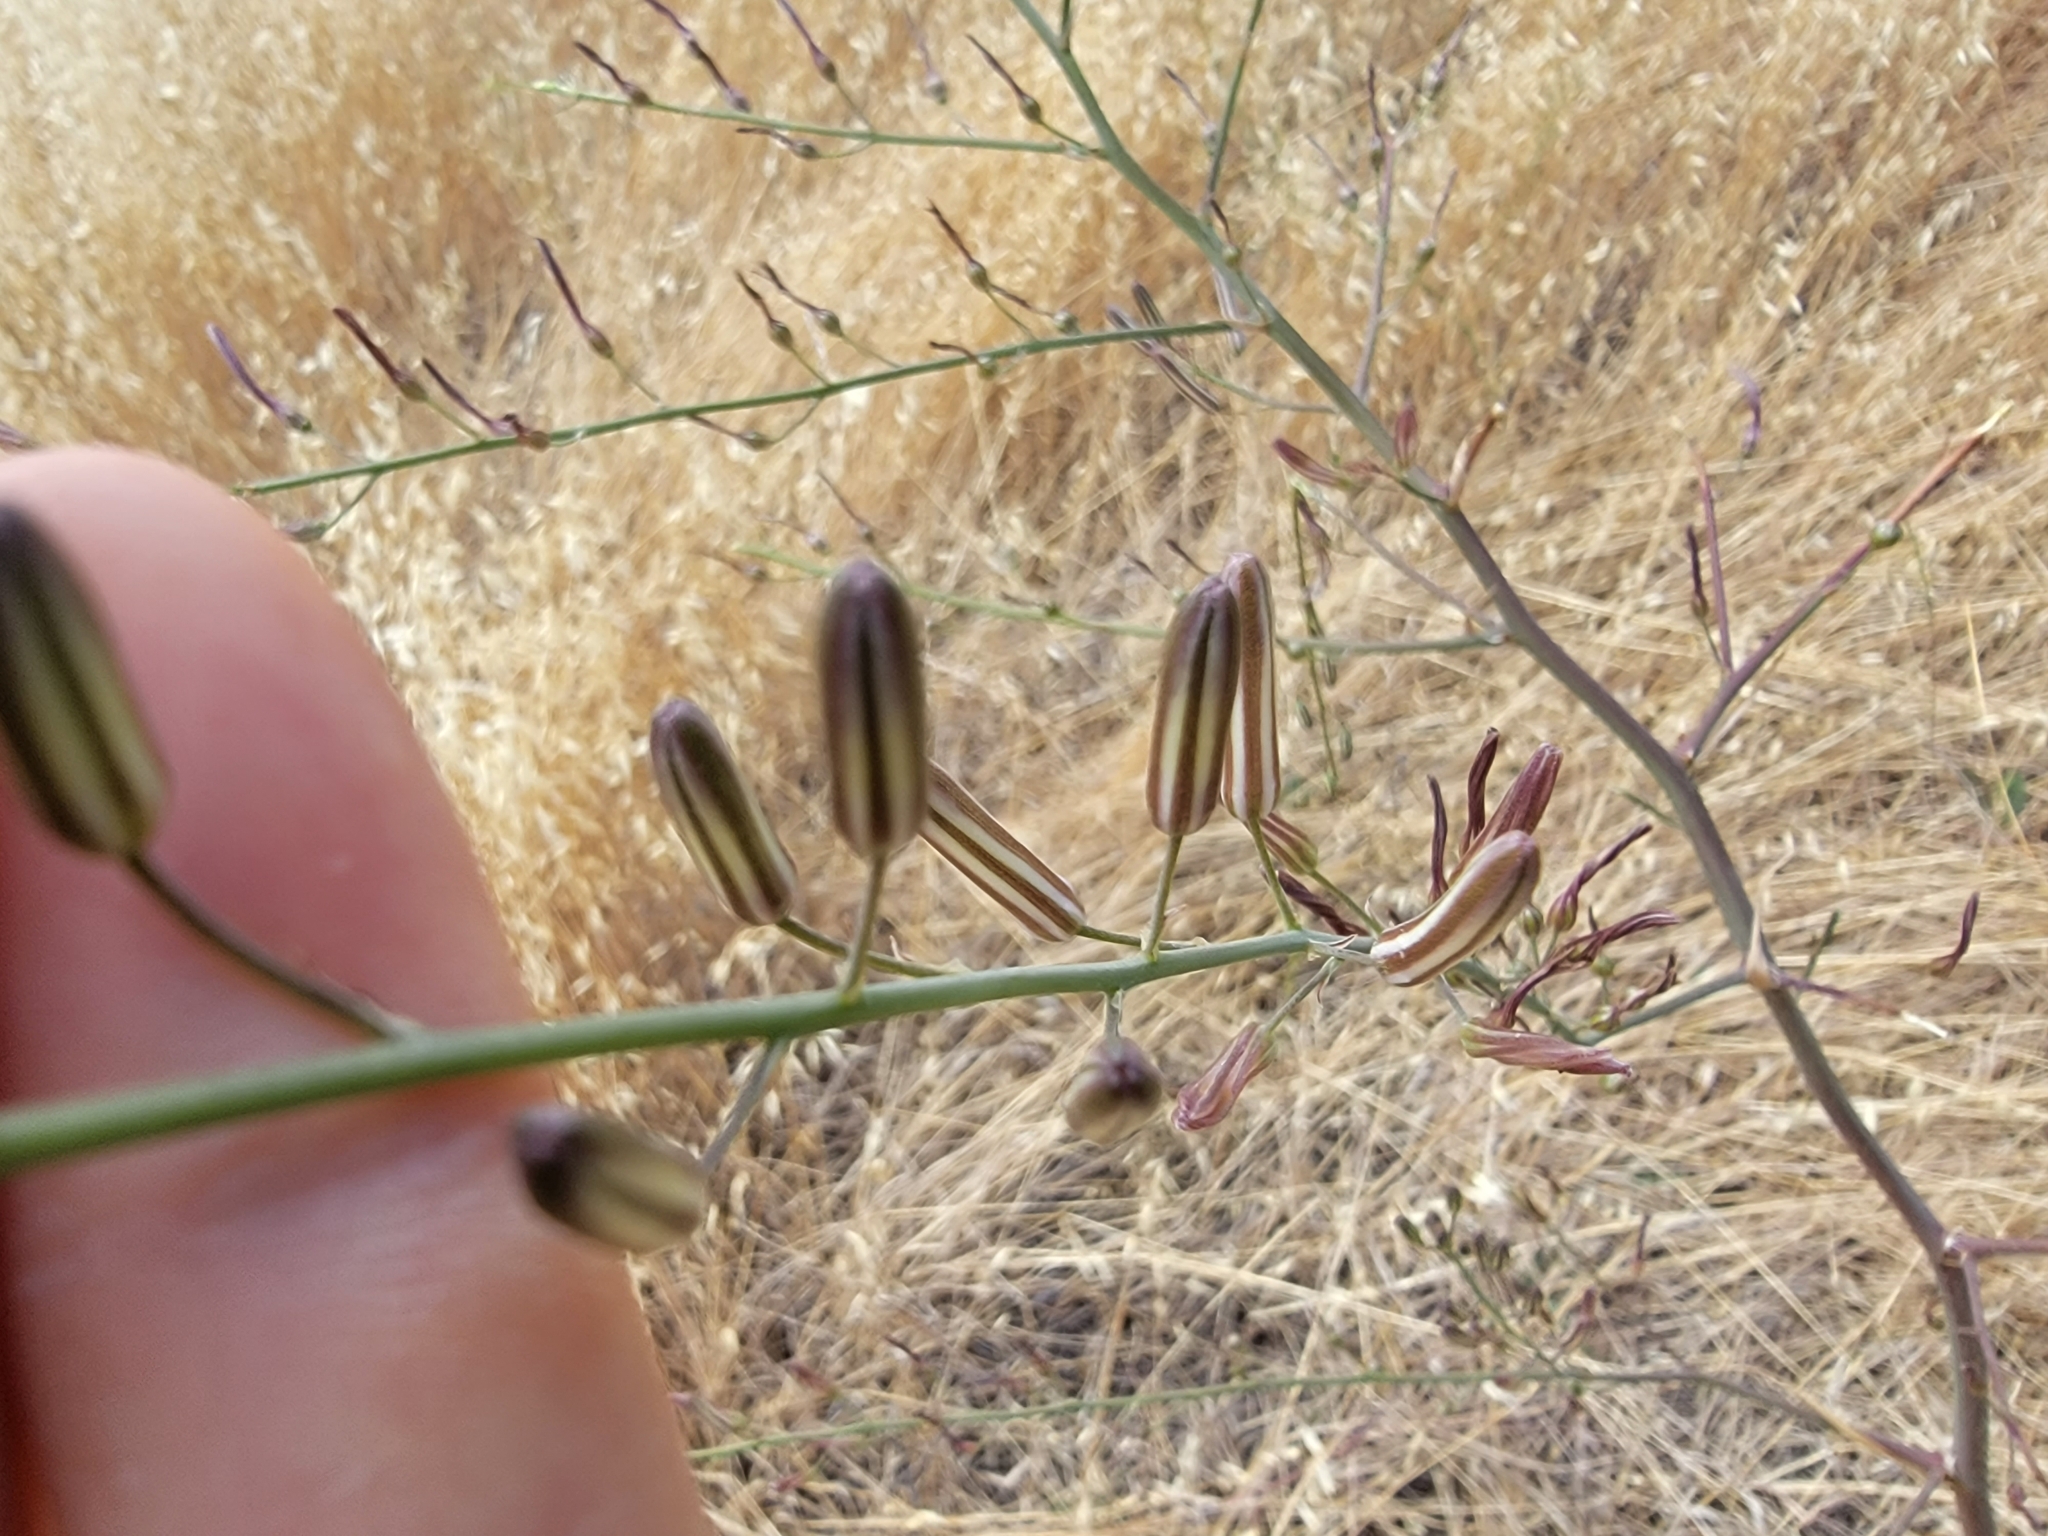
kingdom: Plantae
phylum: Tracheophyta
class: Liliopsida
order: Asparagales
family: Asparagaceae
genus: Chlorogalum
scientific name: Chlorogalum pomeridianum
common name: Amole
